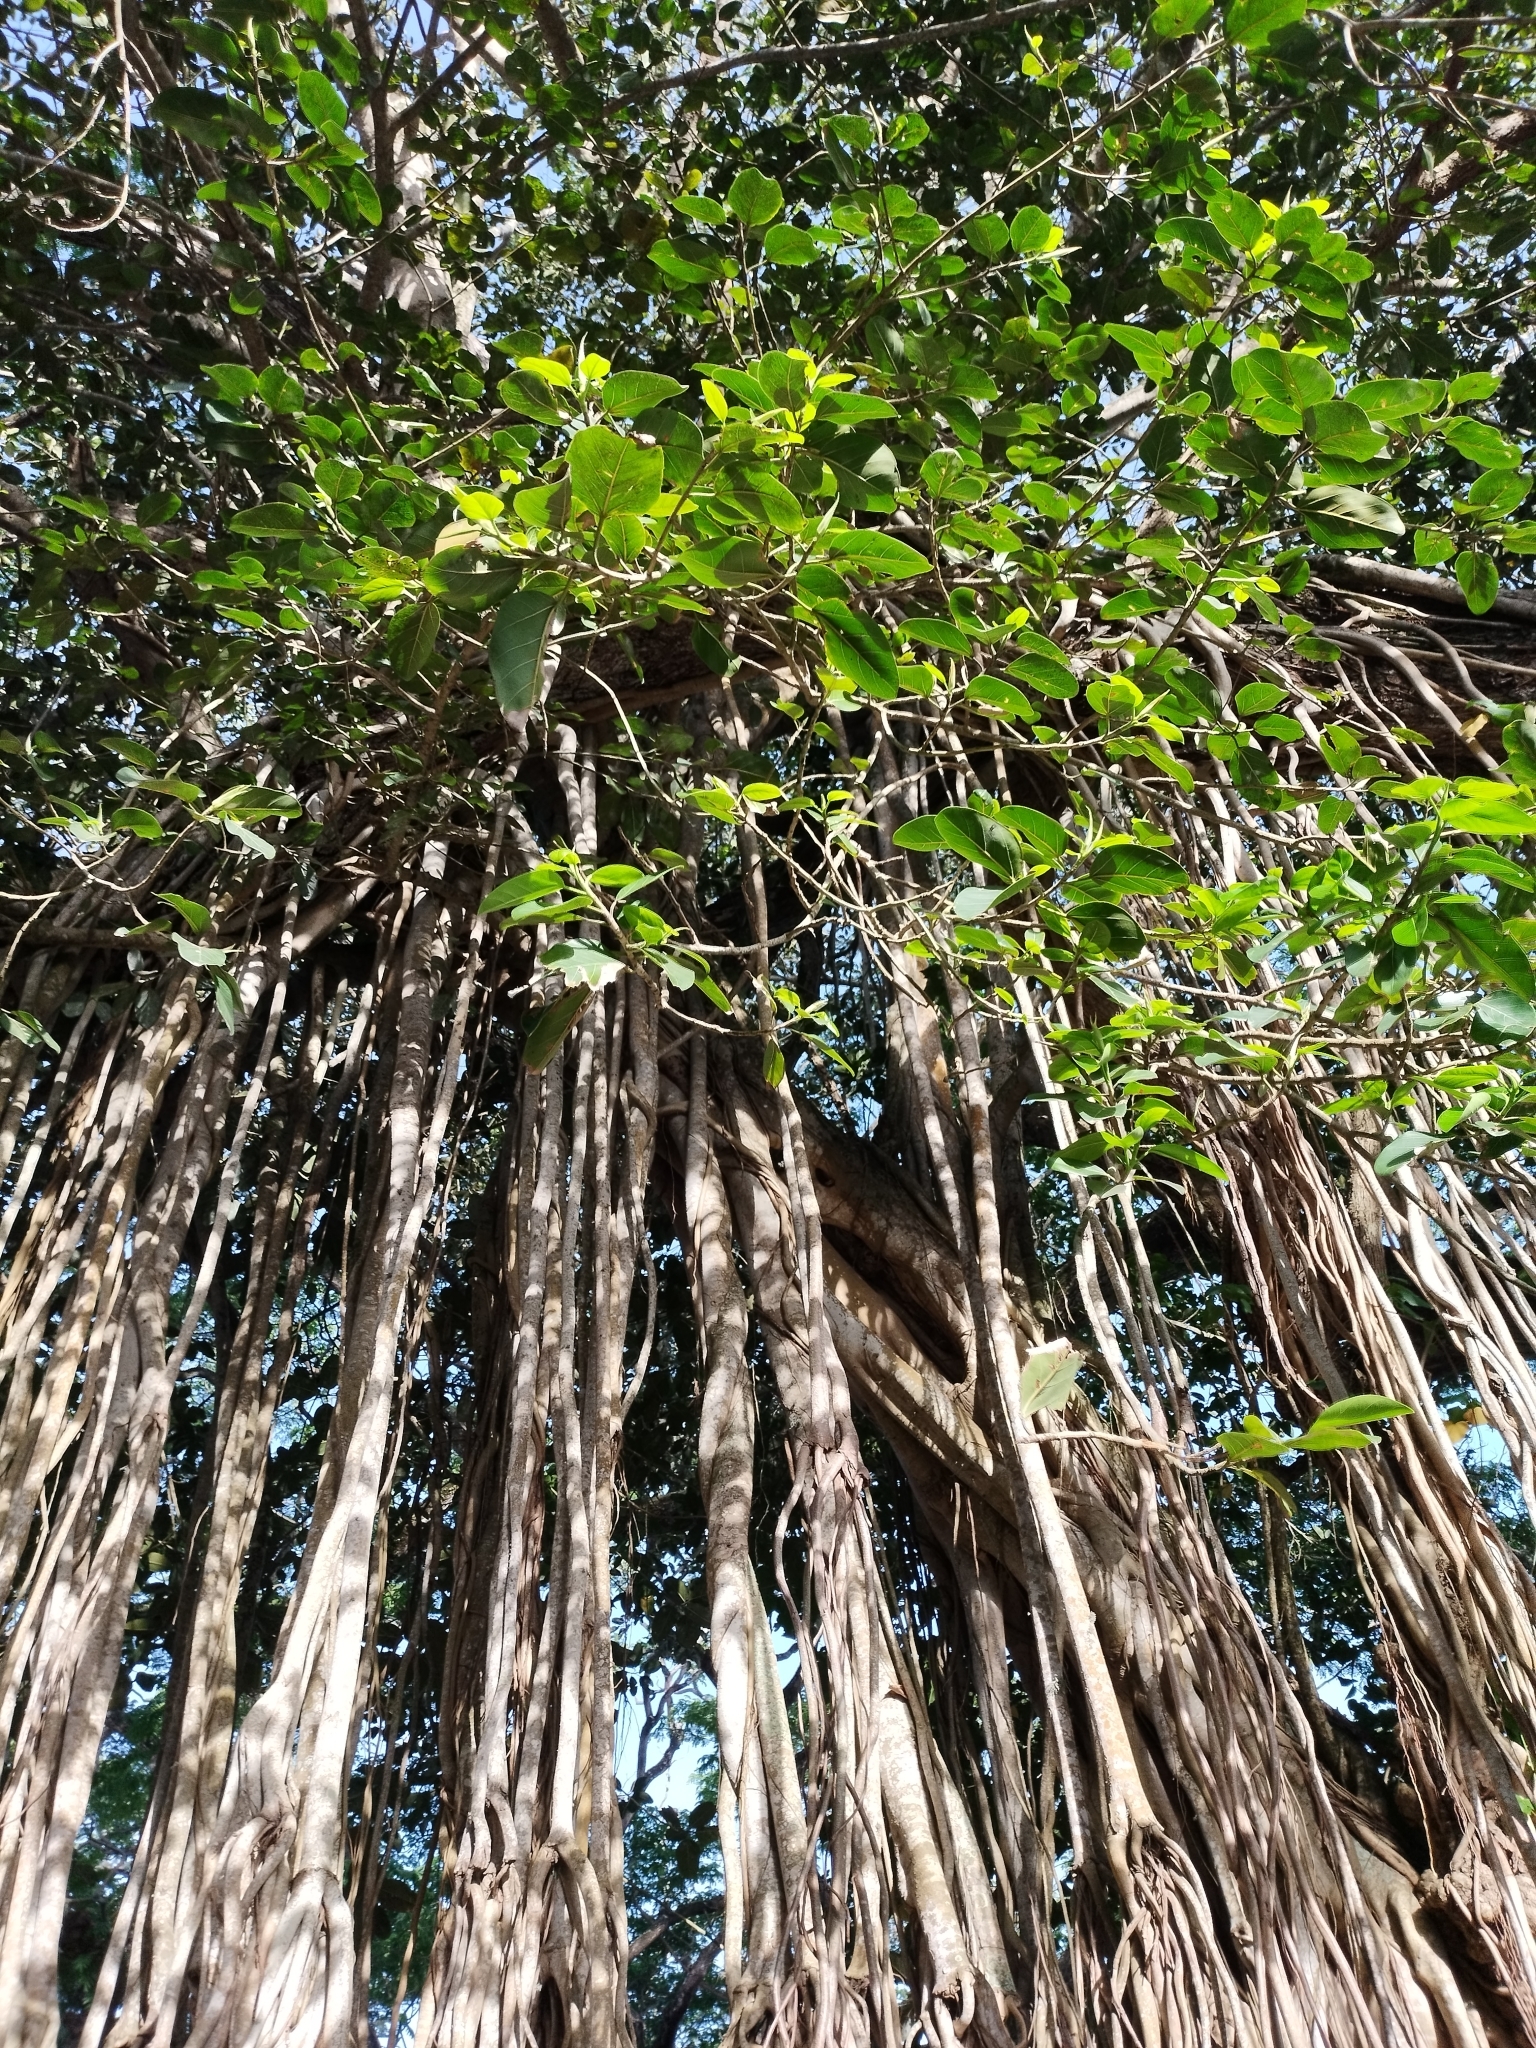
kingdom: Plantae
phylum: Tracheophyta
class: Magnoliopsida
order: Rosales
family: Moraceae
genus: Ficus
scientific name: Ficus benghalensis
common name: Indian banyan
